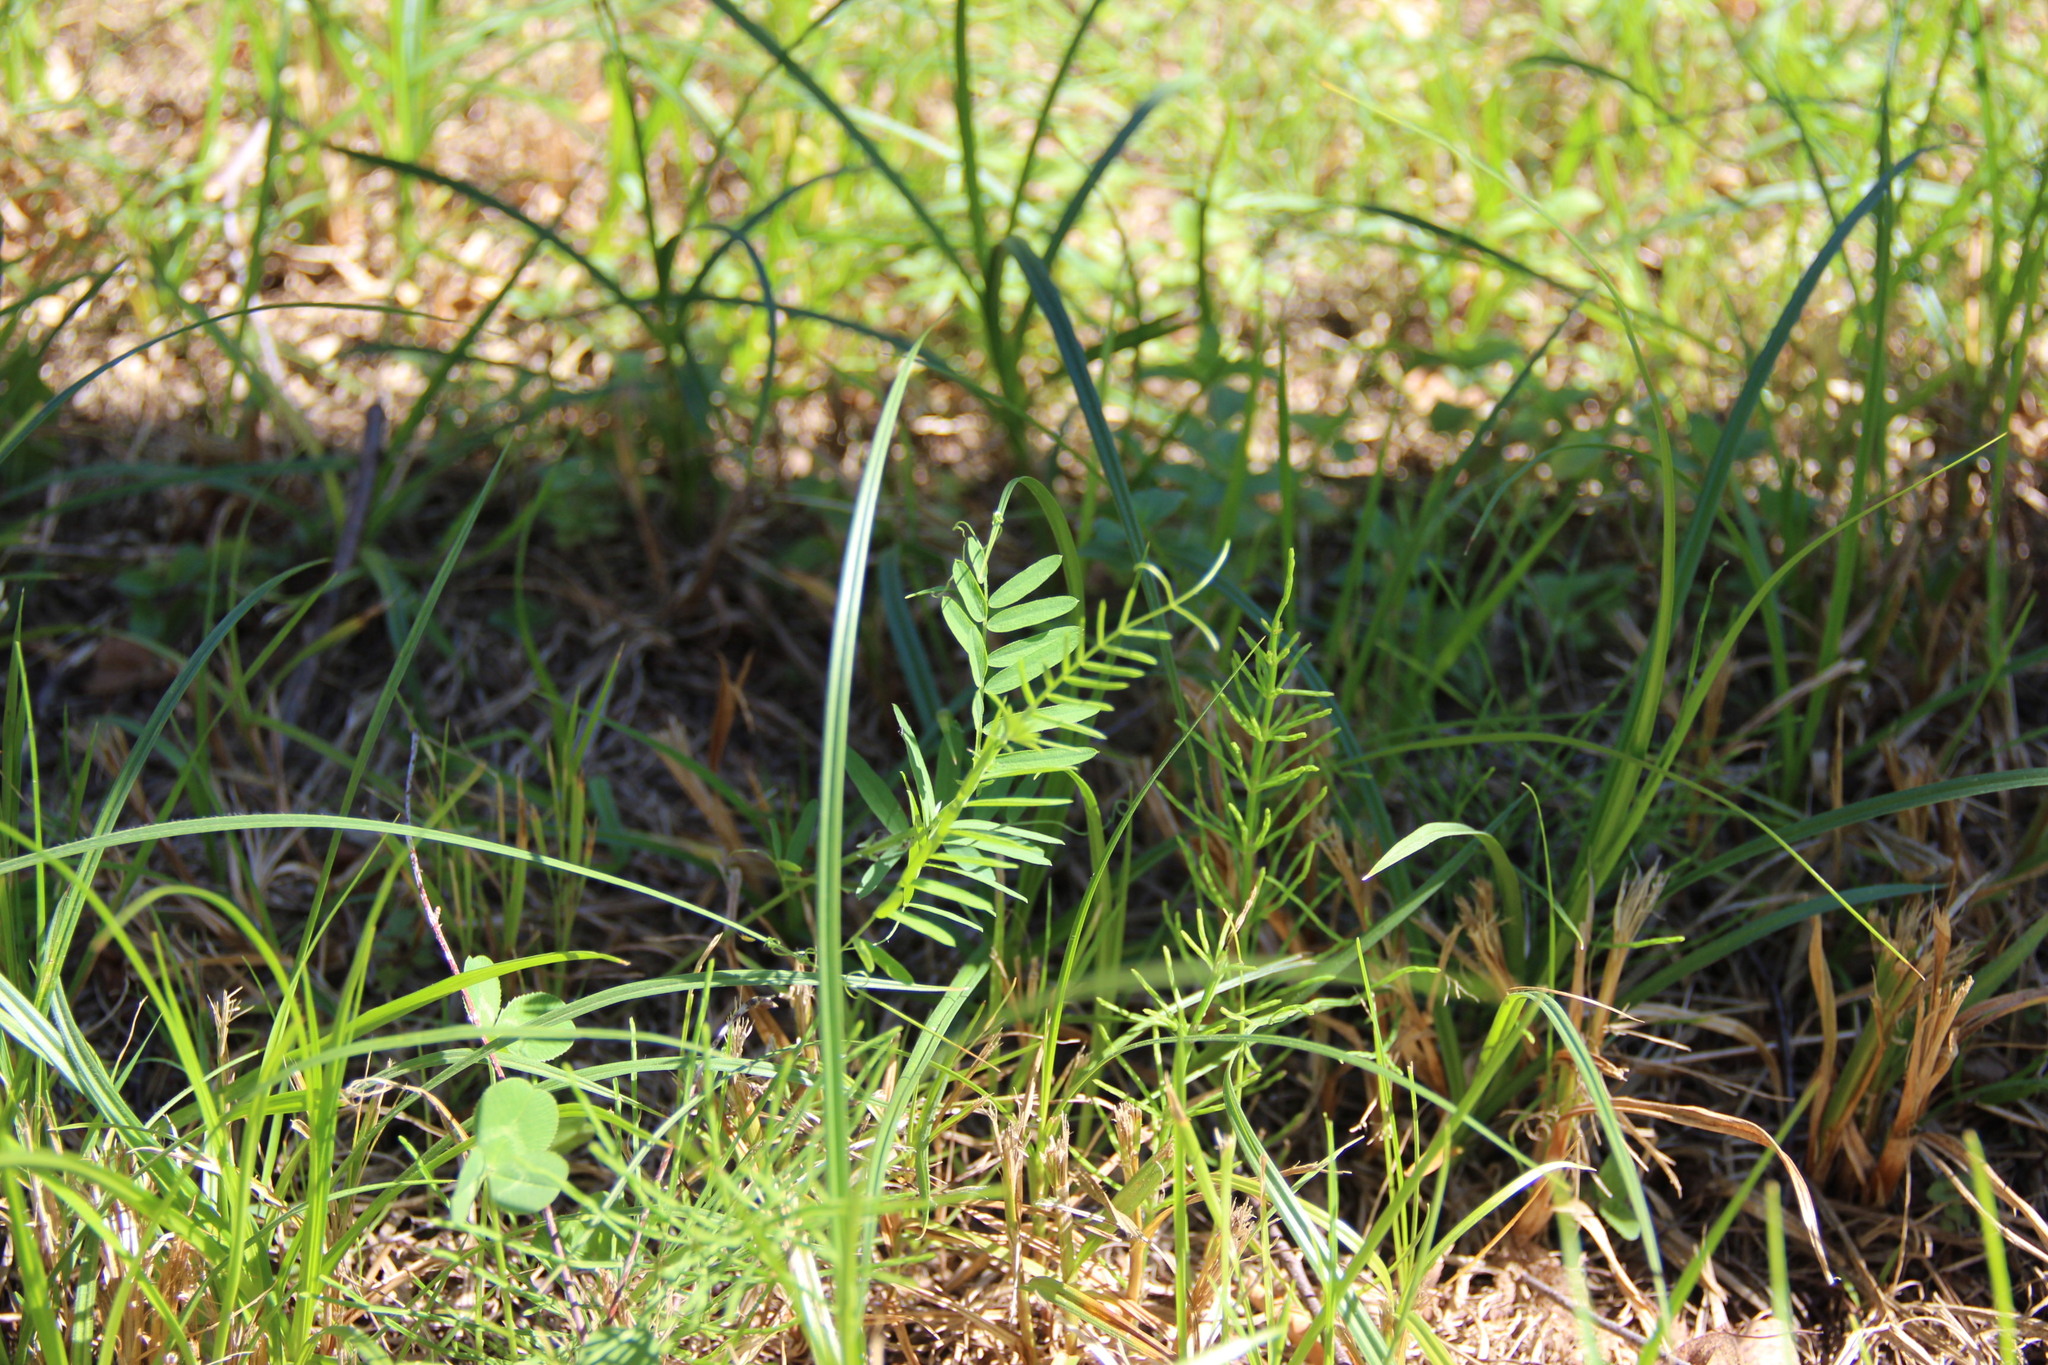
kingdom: Plantae
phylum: Tracheophyta
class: Magnoliopsida
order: Fabales
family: Fabaceae
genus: Vicia
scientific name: Vicia cracca
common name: Bird vetch
